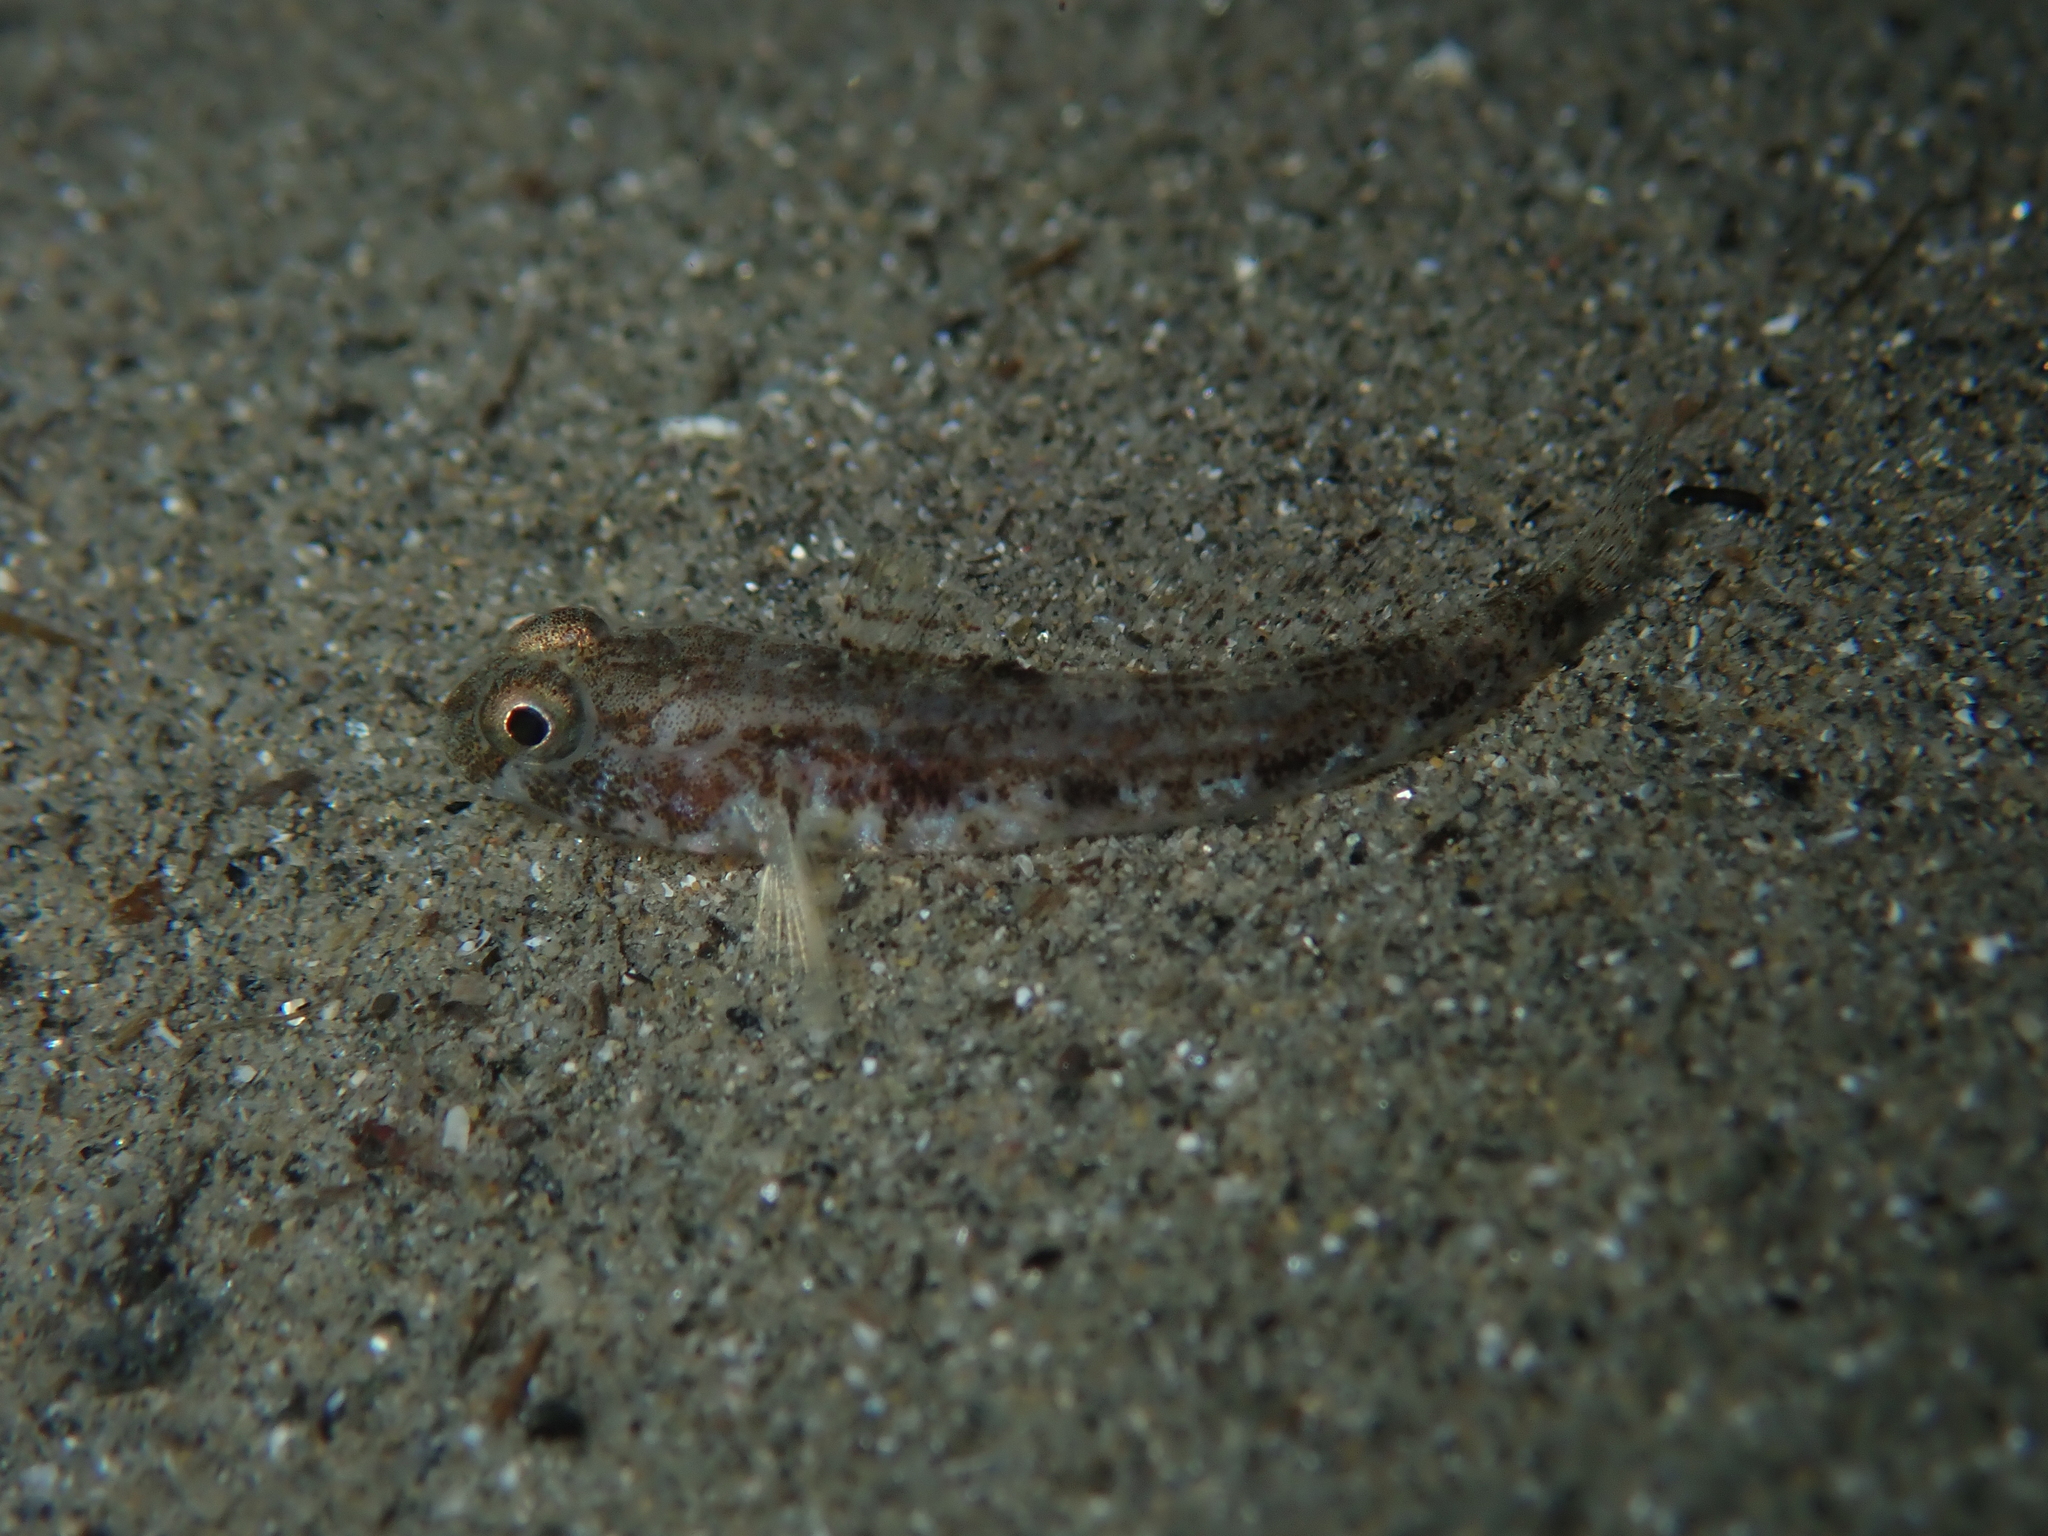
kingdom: Animalia
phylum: Chordata
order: Perciformes
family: Gobiidae
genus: Gobius
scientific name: Gobius niger
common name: Black goby
